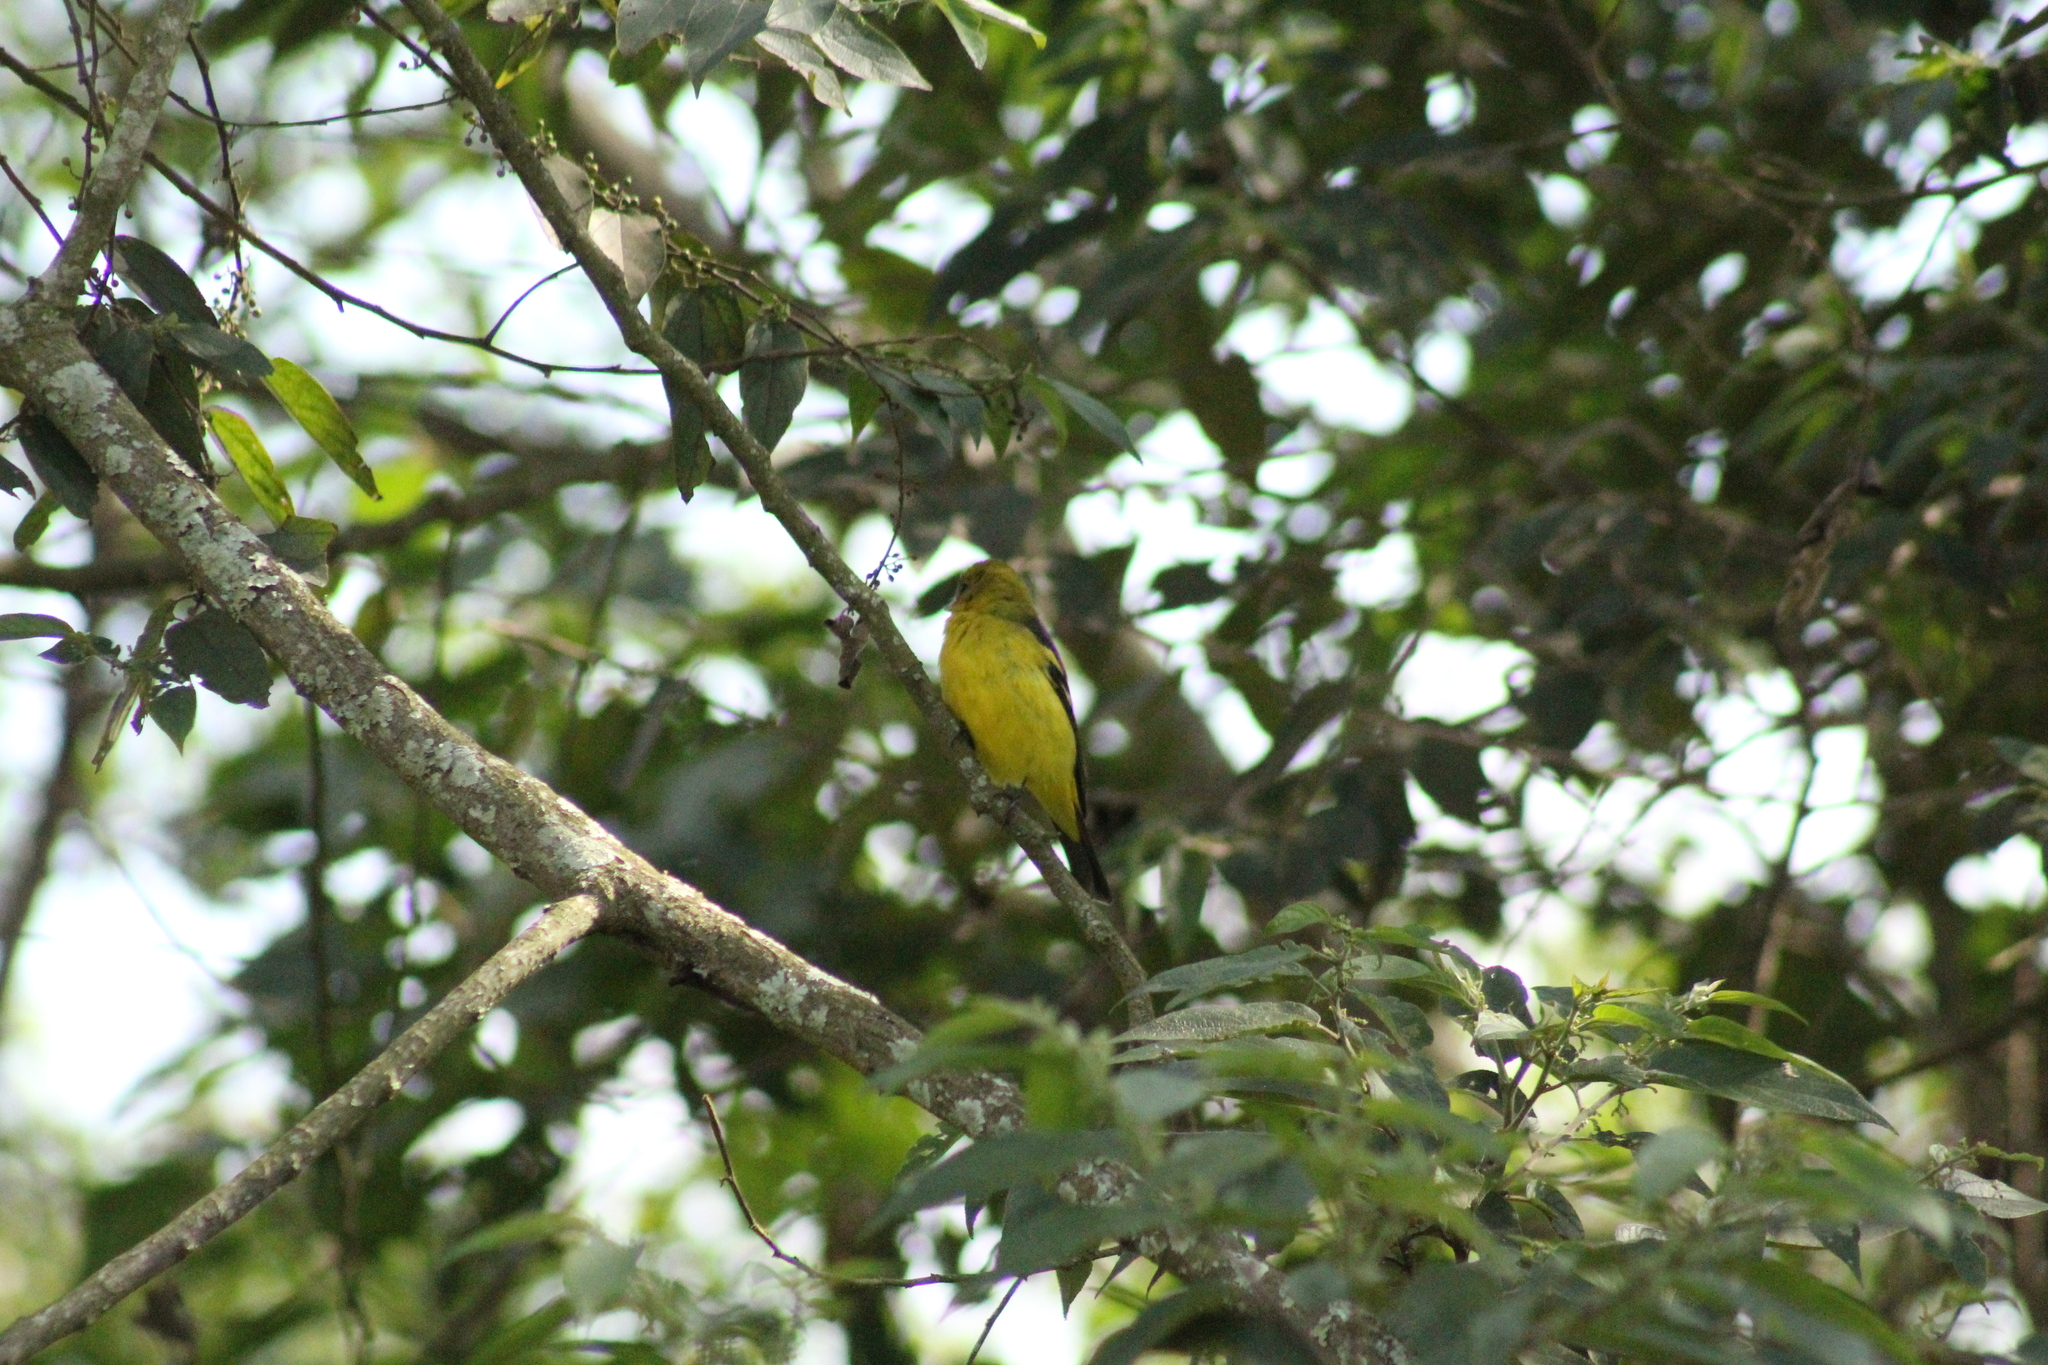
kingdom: Animalia
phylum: Chordata
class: Aves
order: Passeriformes
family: Cardinalidae
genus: Piranga
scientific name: Piranga ludoviciana
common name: Western tanager
